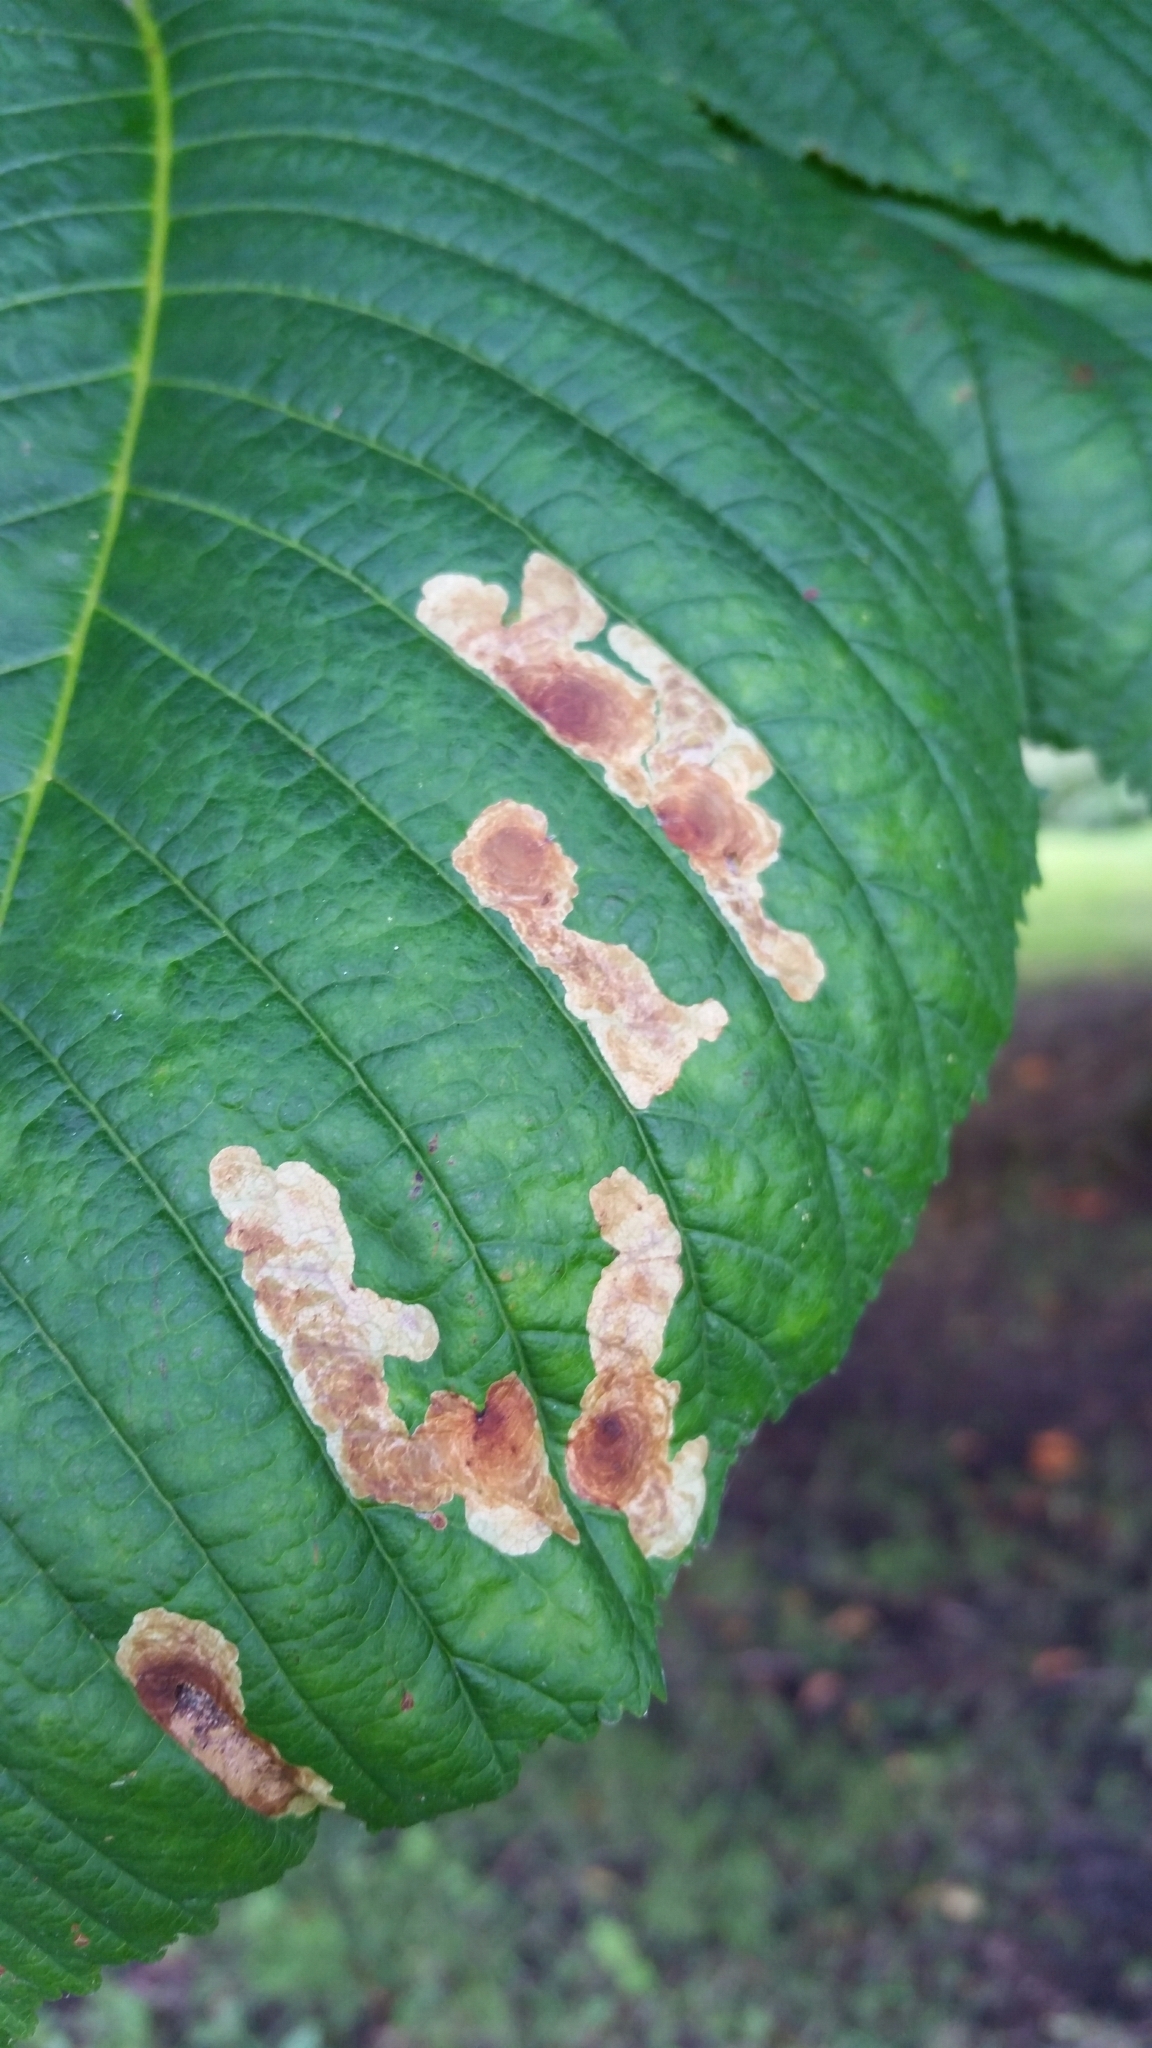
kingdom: Animalia
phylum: Arthropoda
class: Insecta
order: Lepidoptera
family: Gracillariidae
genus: Cameraria
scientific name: Cameraria ohridella
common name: Horse-chestnut leaf-miner
